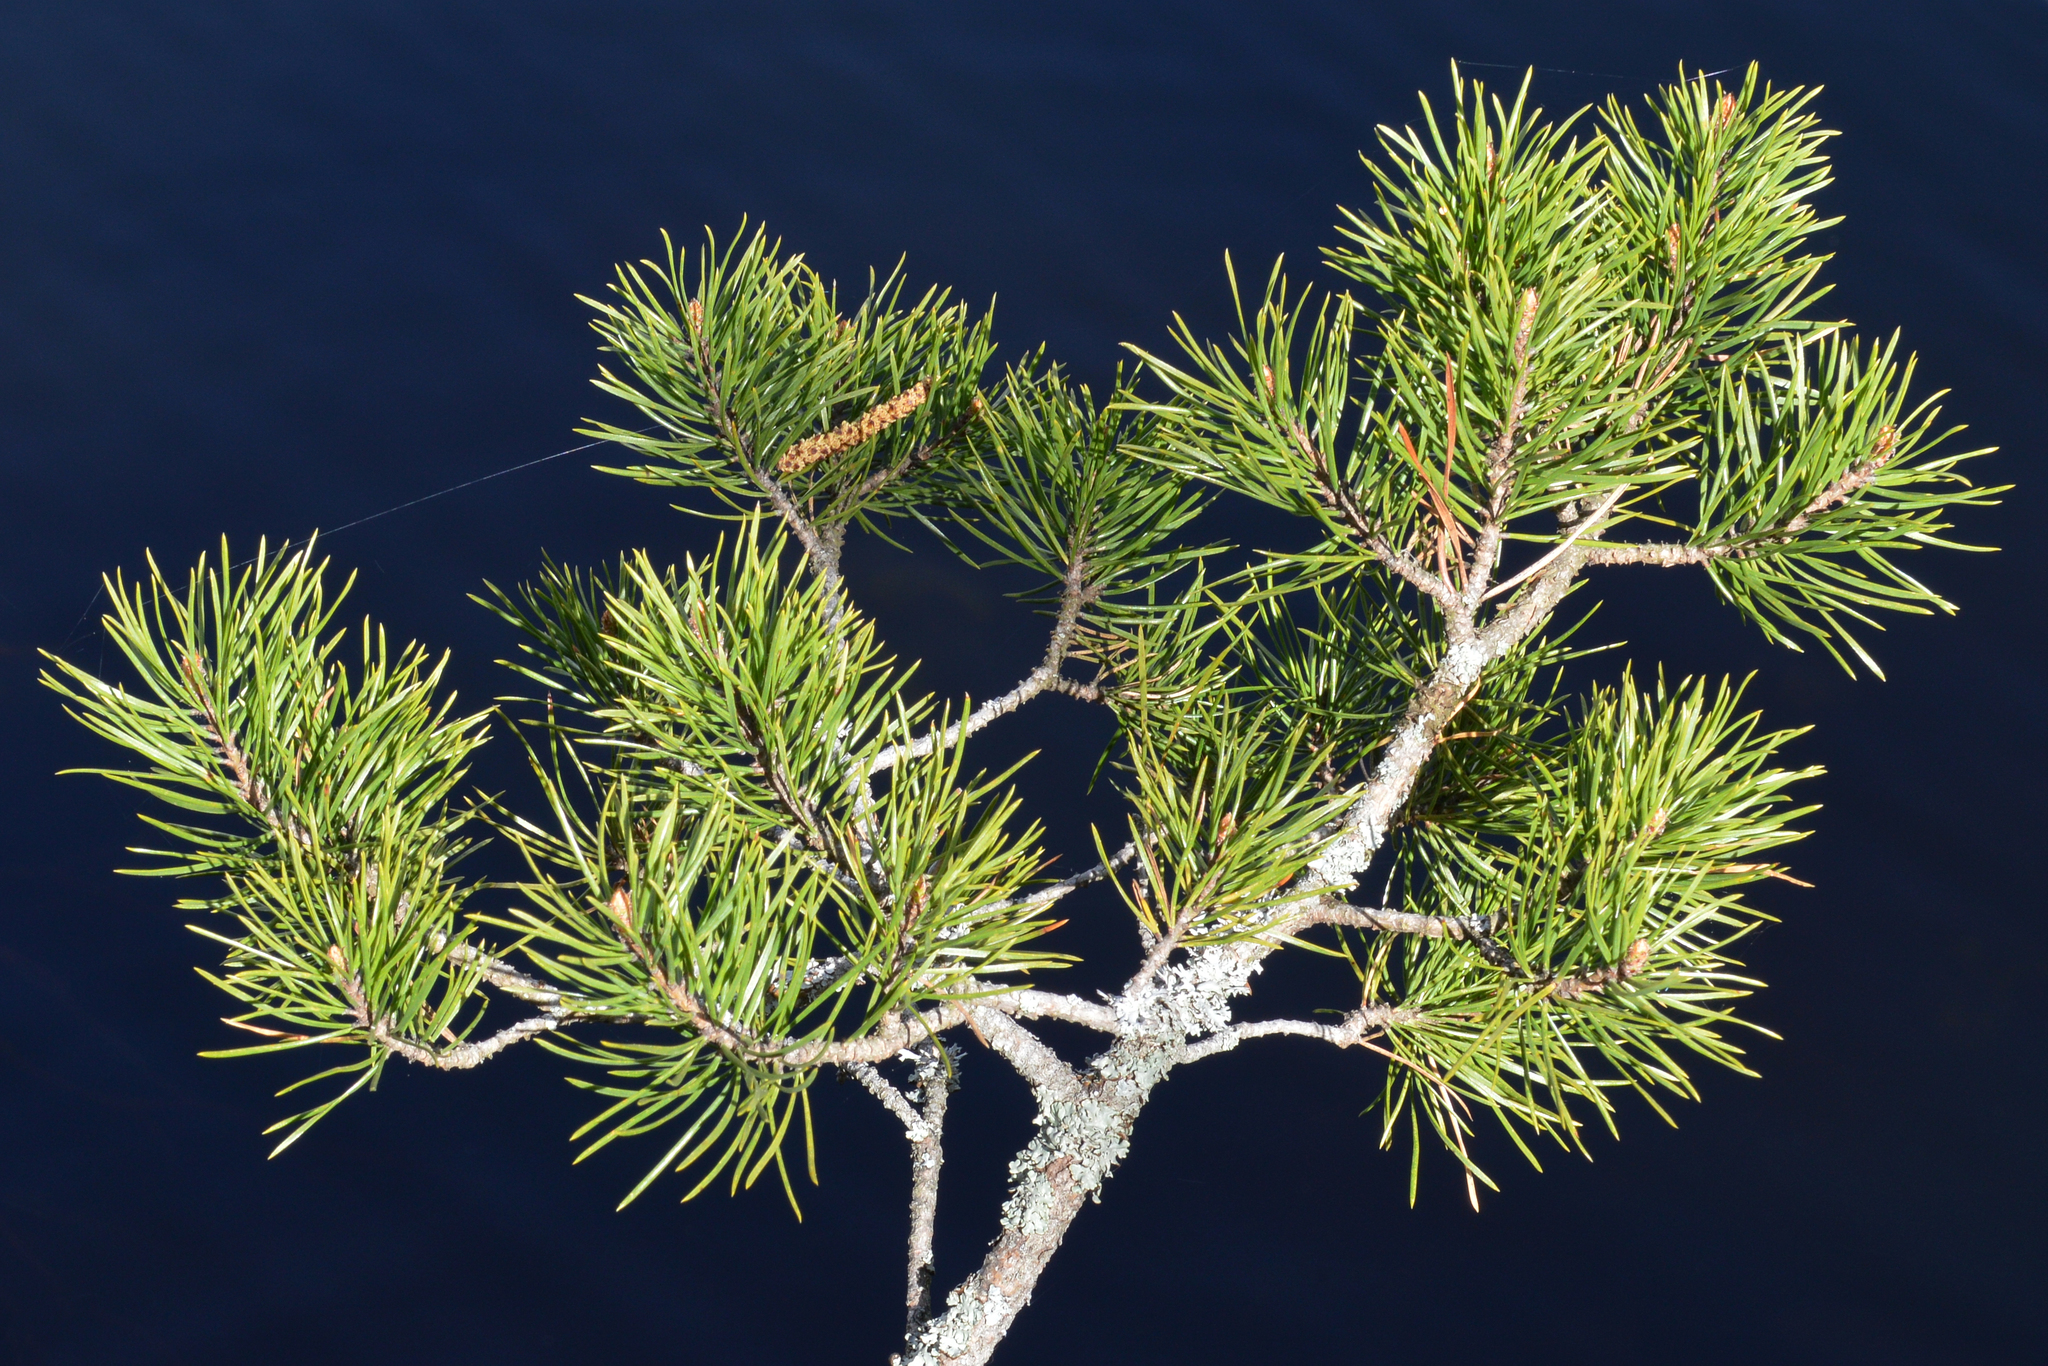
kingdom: Plantae
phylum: Tracheophyta
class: Pinopsida
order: Pinales
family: Pinaceae
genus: Pinus
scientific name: Pinus sylvestris
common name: Scots pine
